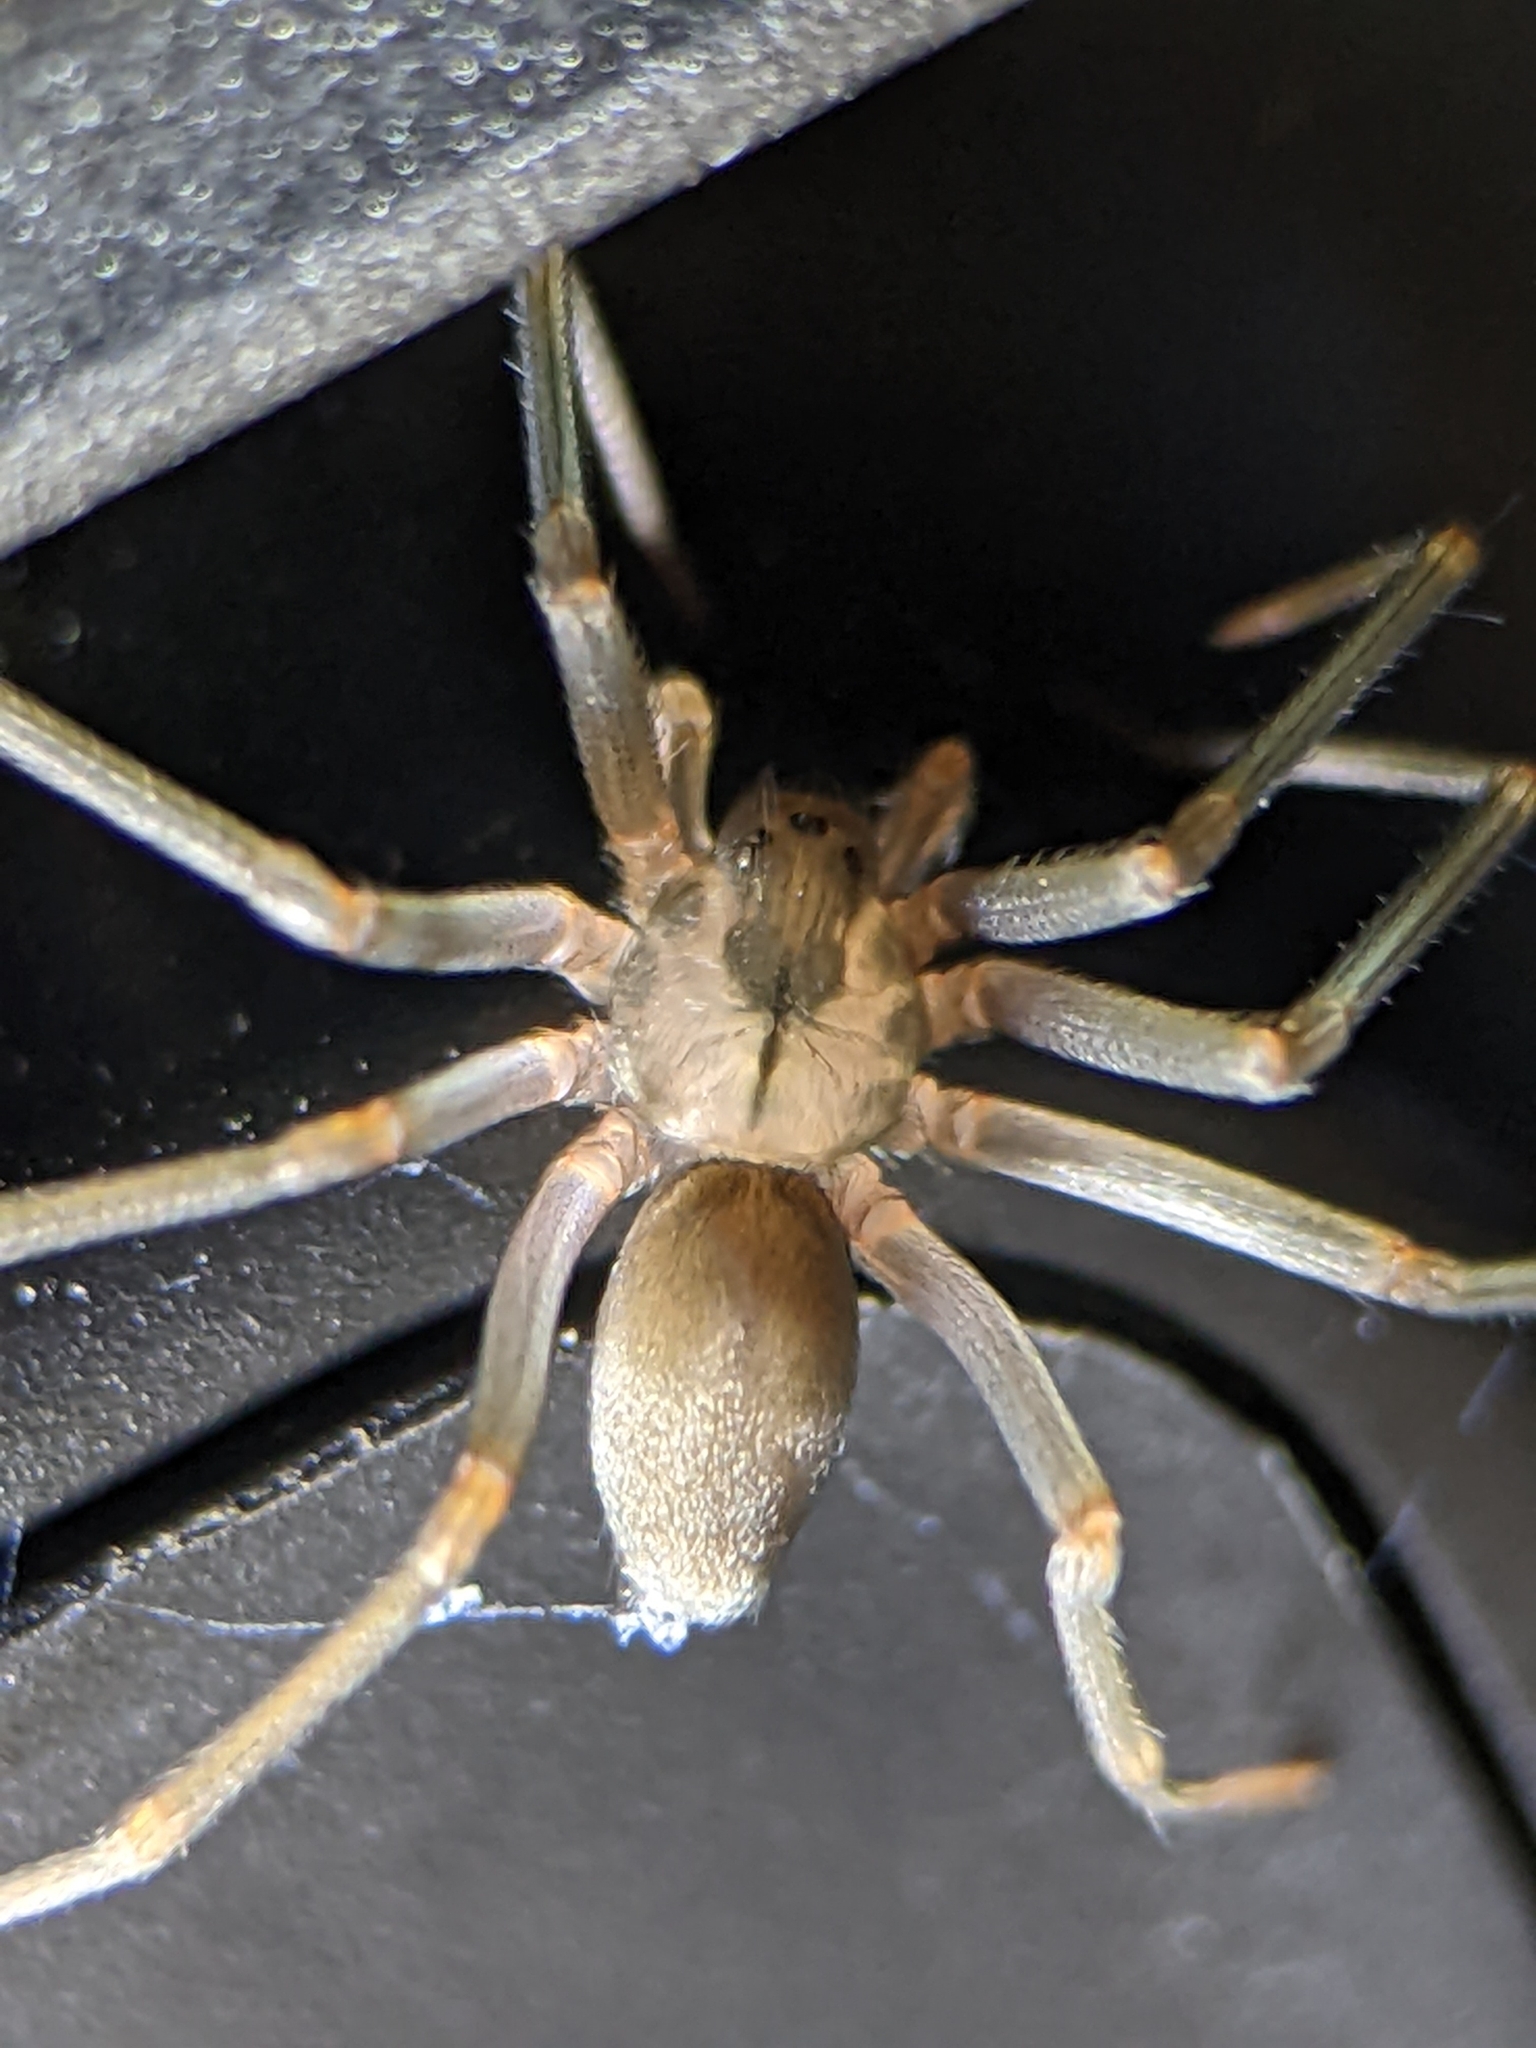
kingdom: Animalia
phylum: Arthropoda
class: Arachnida
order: Araneae
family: Sicariidae
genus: Loxosceles
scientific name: Loxosceles reclusa
